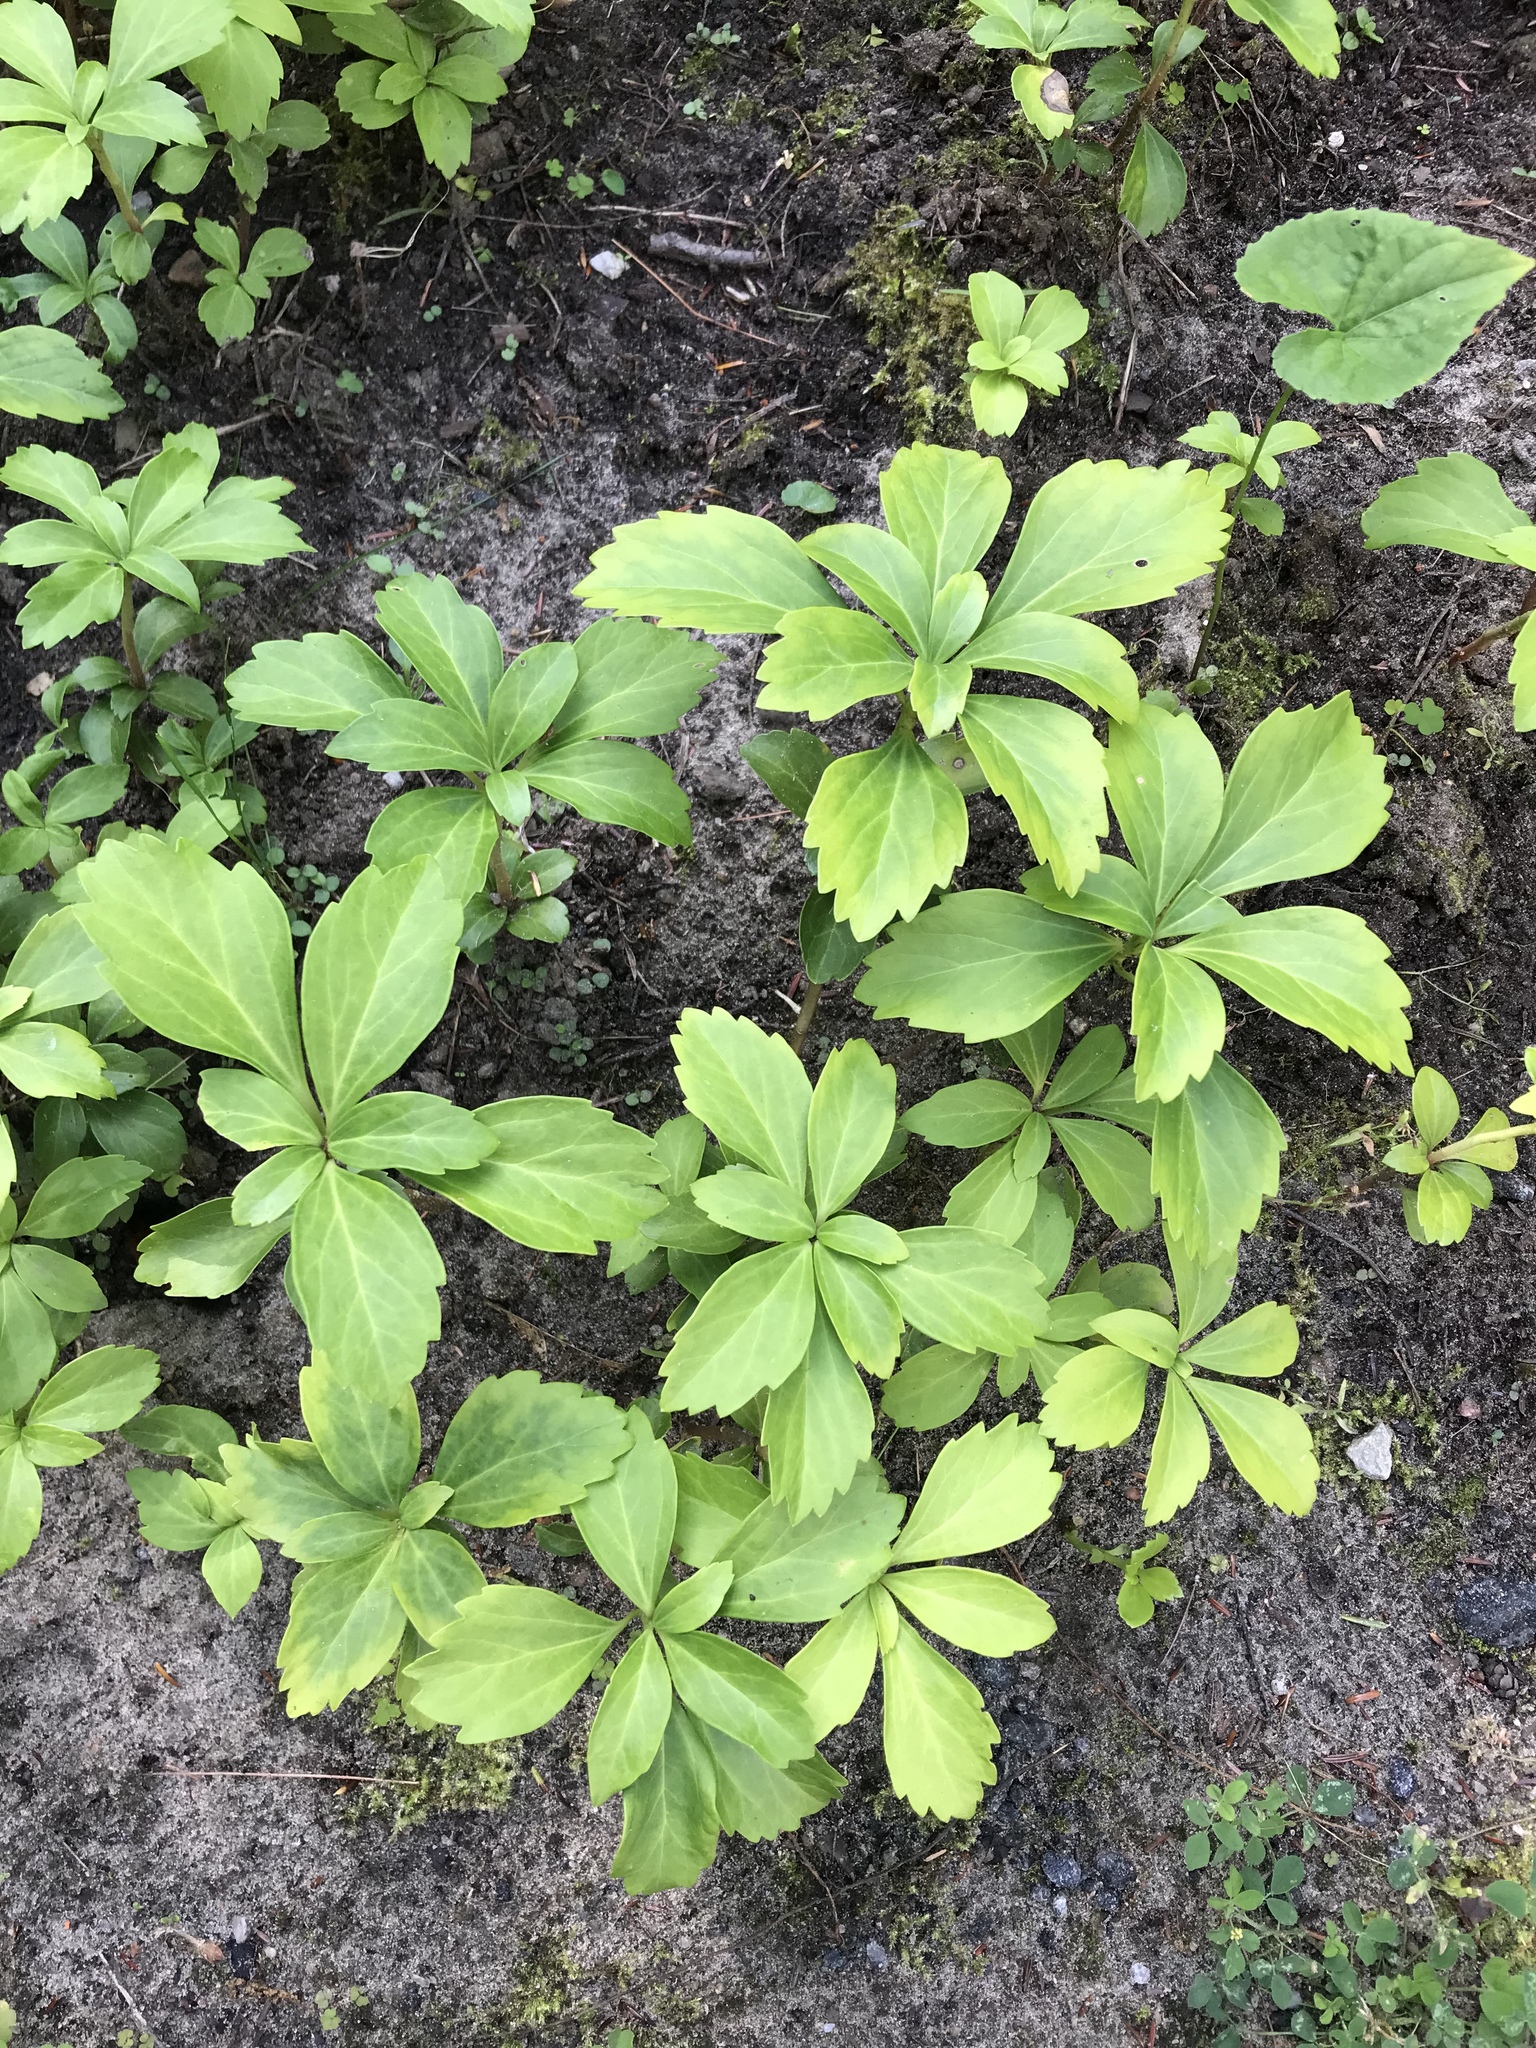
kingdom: Plantae
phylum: Tracheophyta
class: Magnoliopsida
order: Buxales
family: Buxaceae
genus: Pachysandra
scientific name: Pachysandra terminalis
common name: Japanese pachysandra
